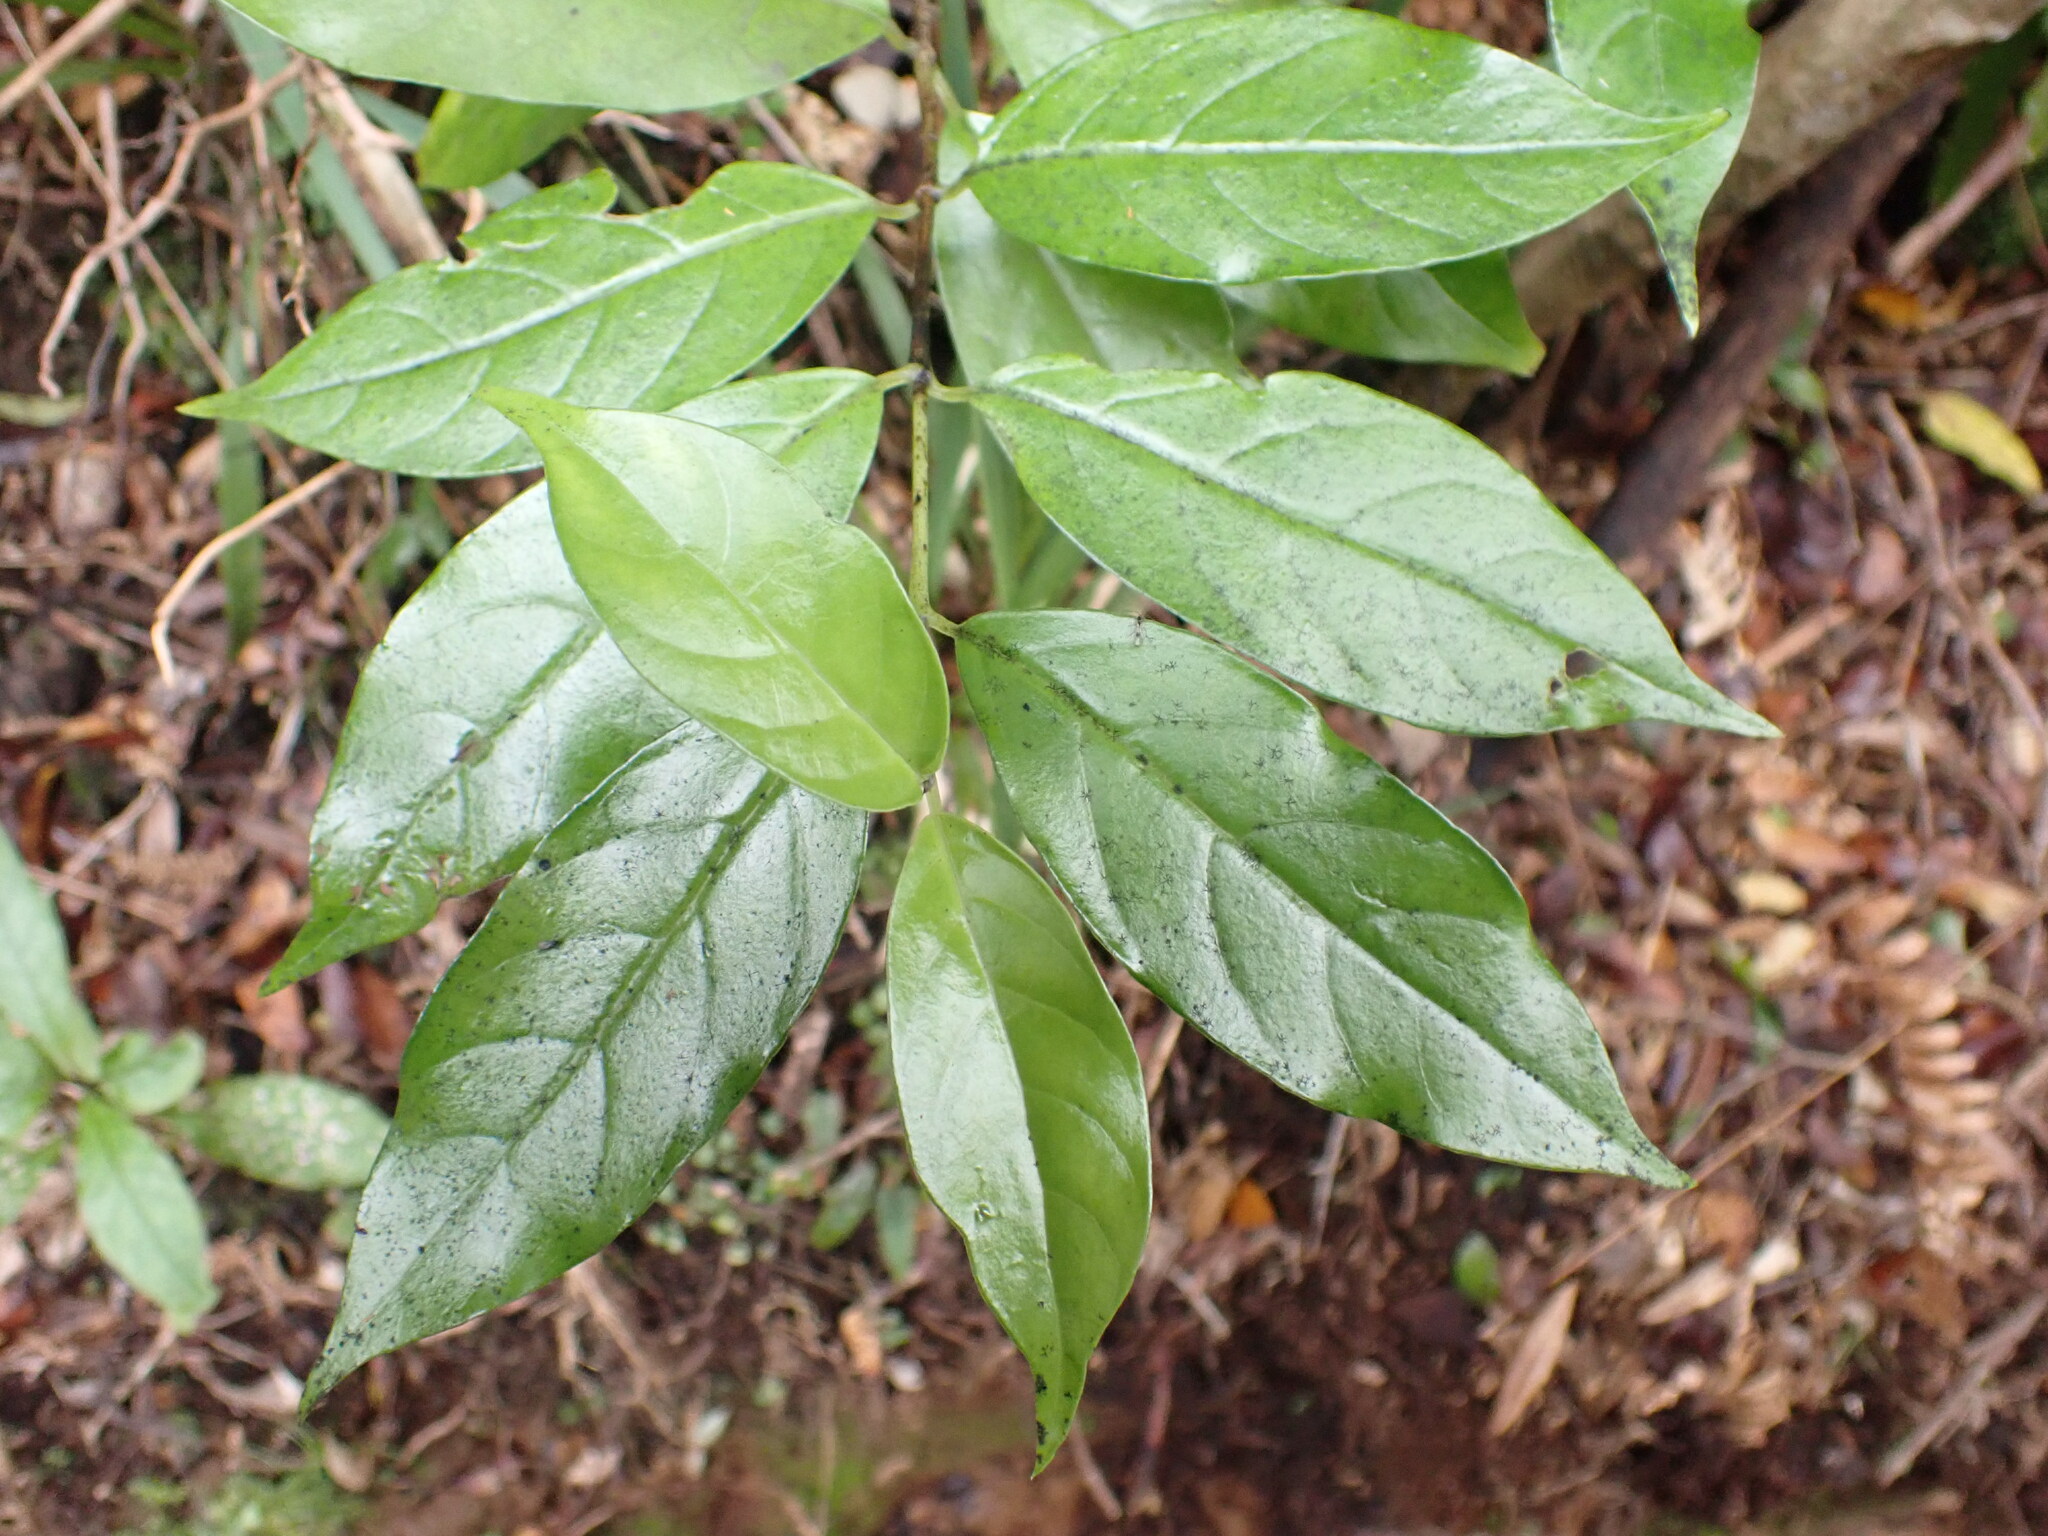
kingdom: Plantae
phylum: Tracheophyta
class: Magnoliopsida
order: Gentianales
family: Loganiaceae
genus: Geniostoma
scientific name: Geniostoma ligustrifolium
